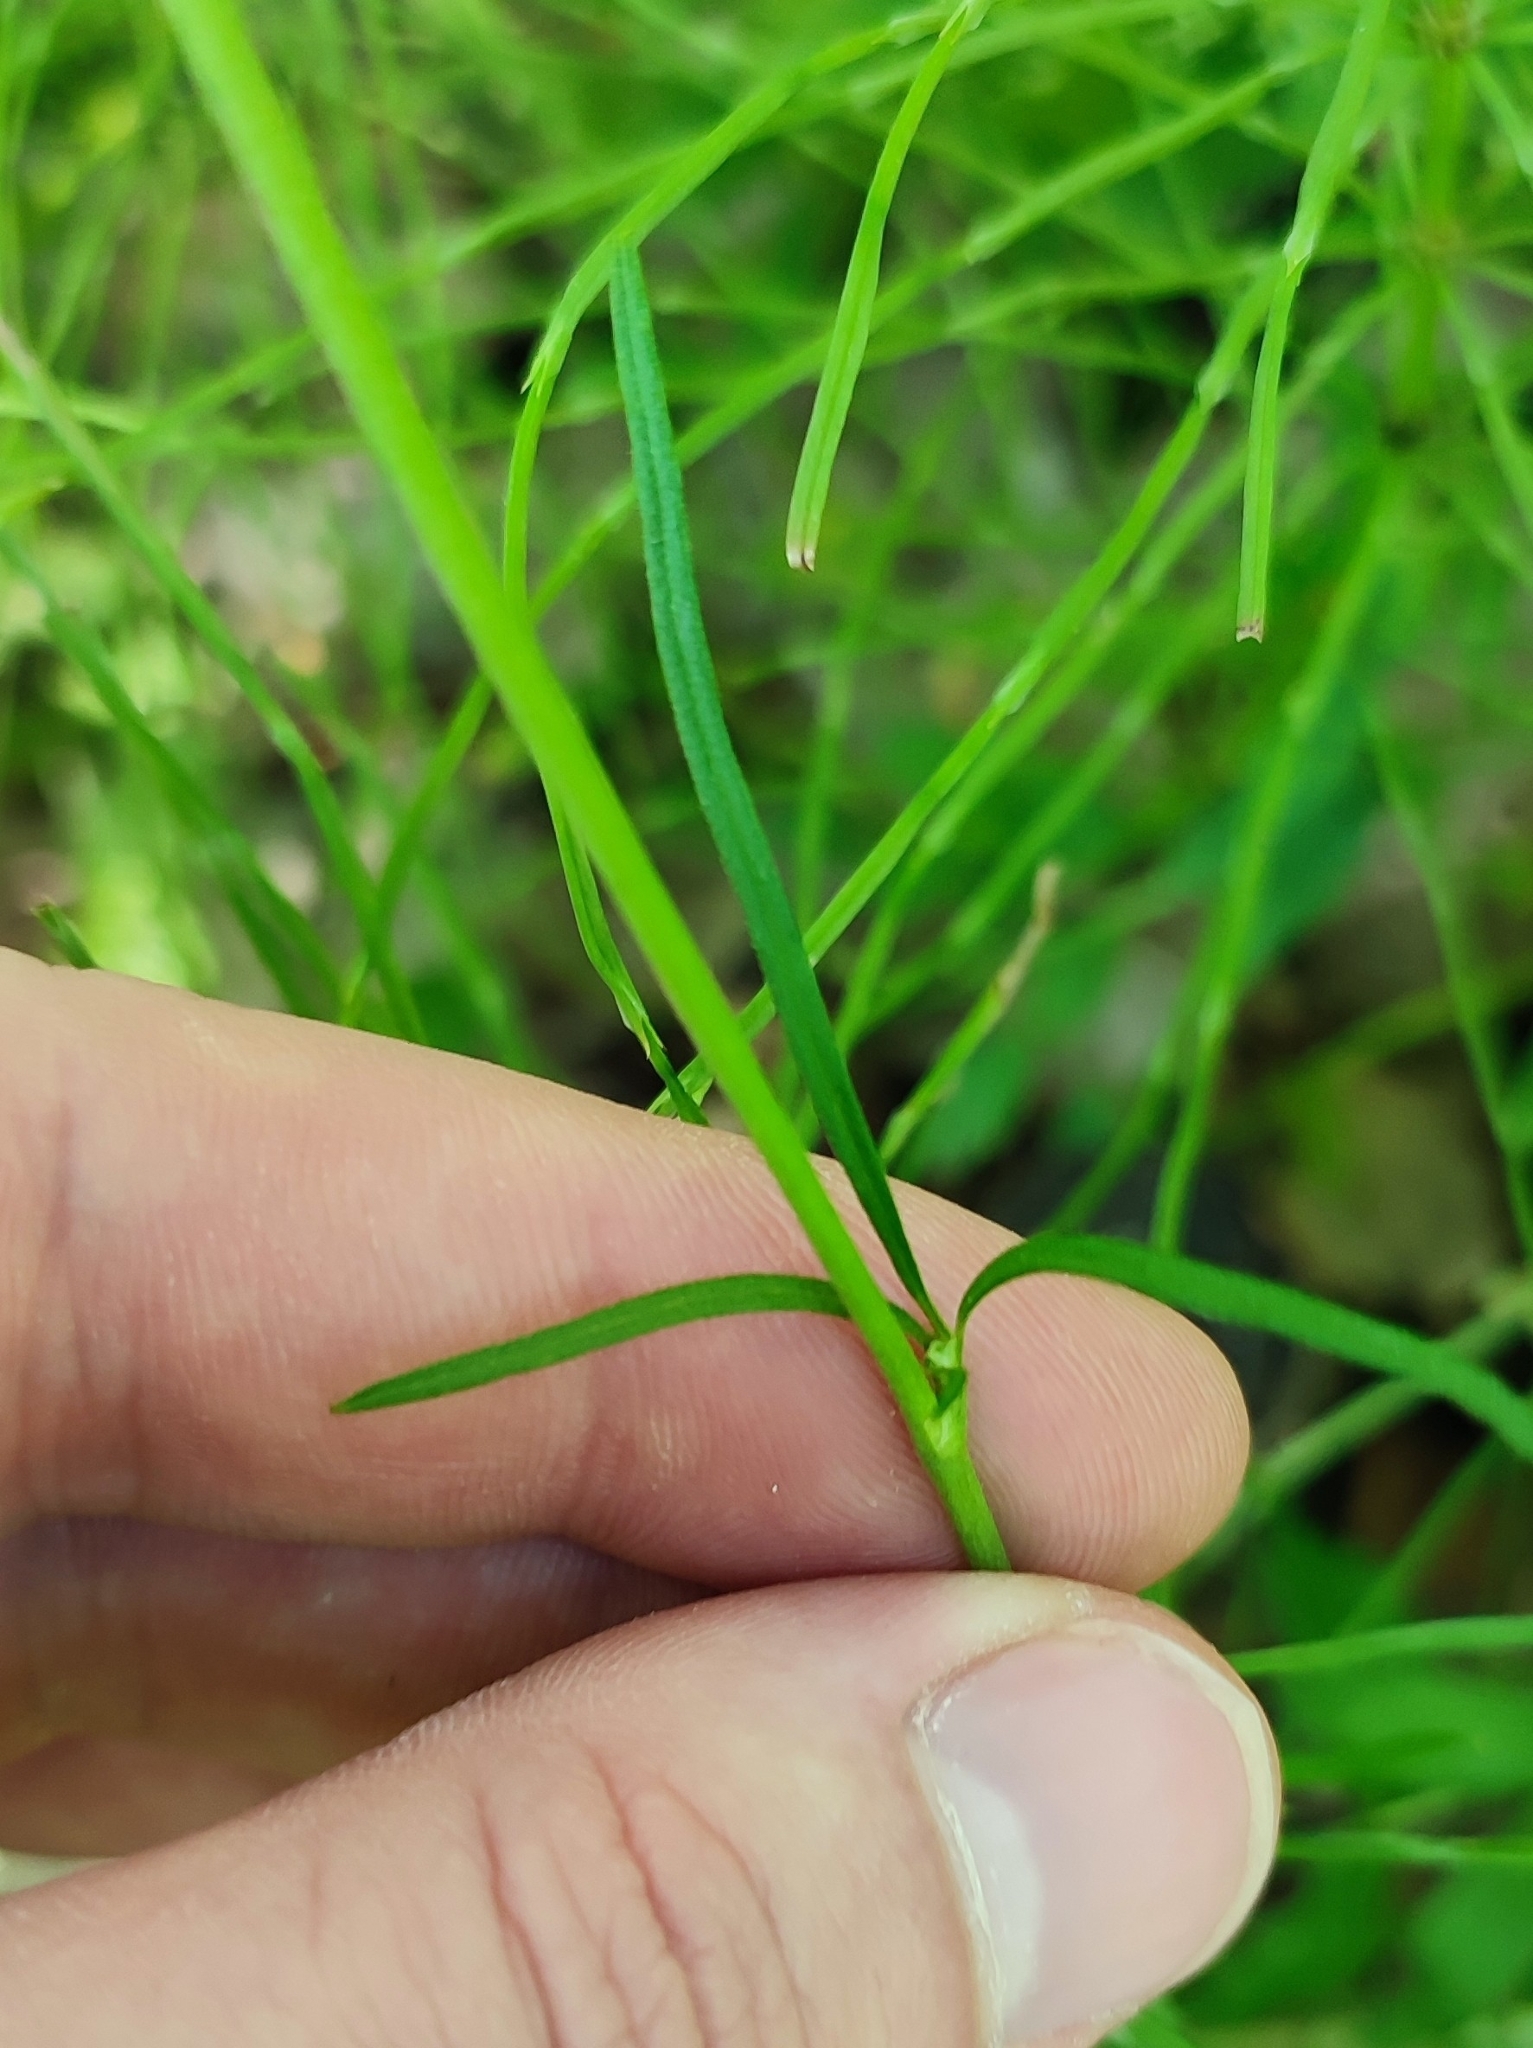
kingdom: Plantae
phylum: Tracheophyta
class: Magnoliopsida
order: Ranunculales
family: Ranunculaceae
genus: Ranunculus
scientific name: Ranunculus acris
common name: Meadow buttercup
